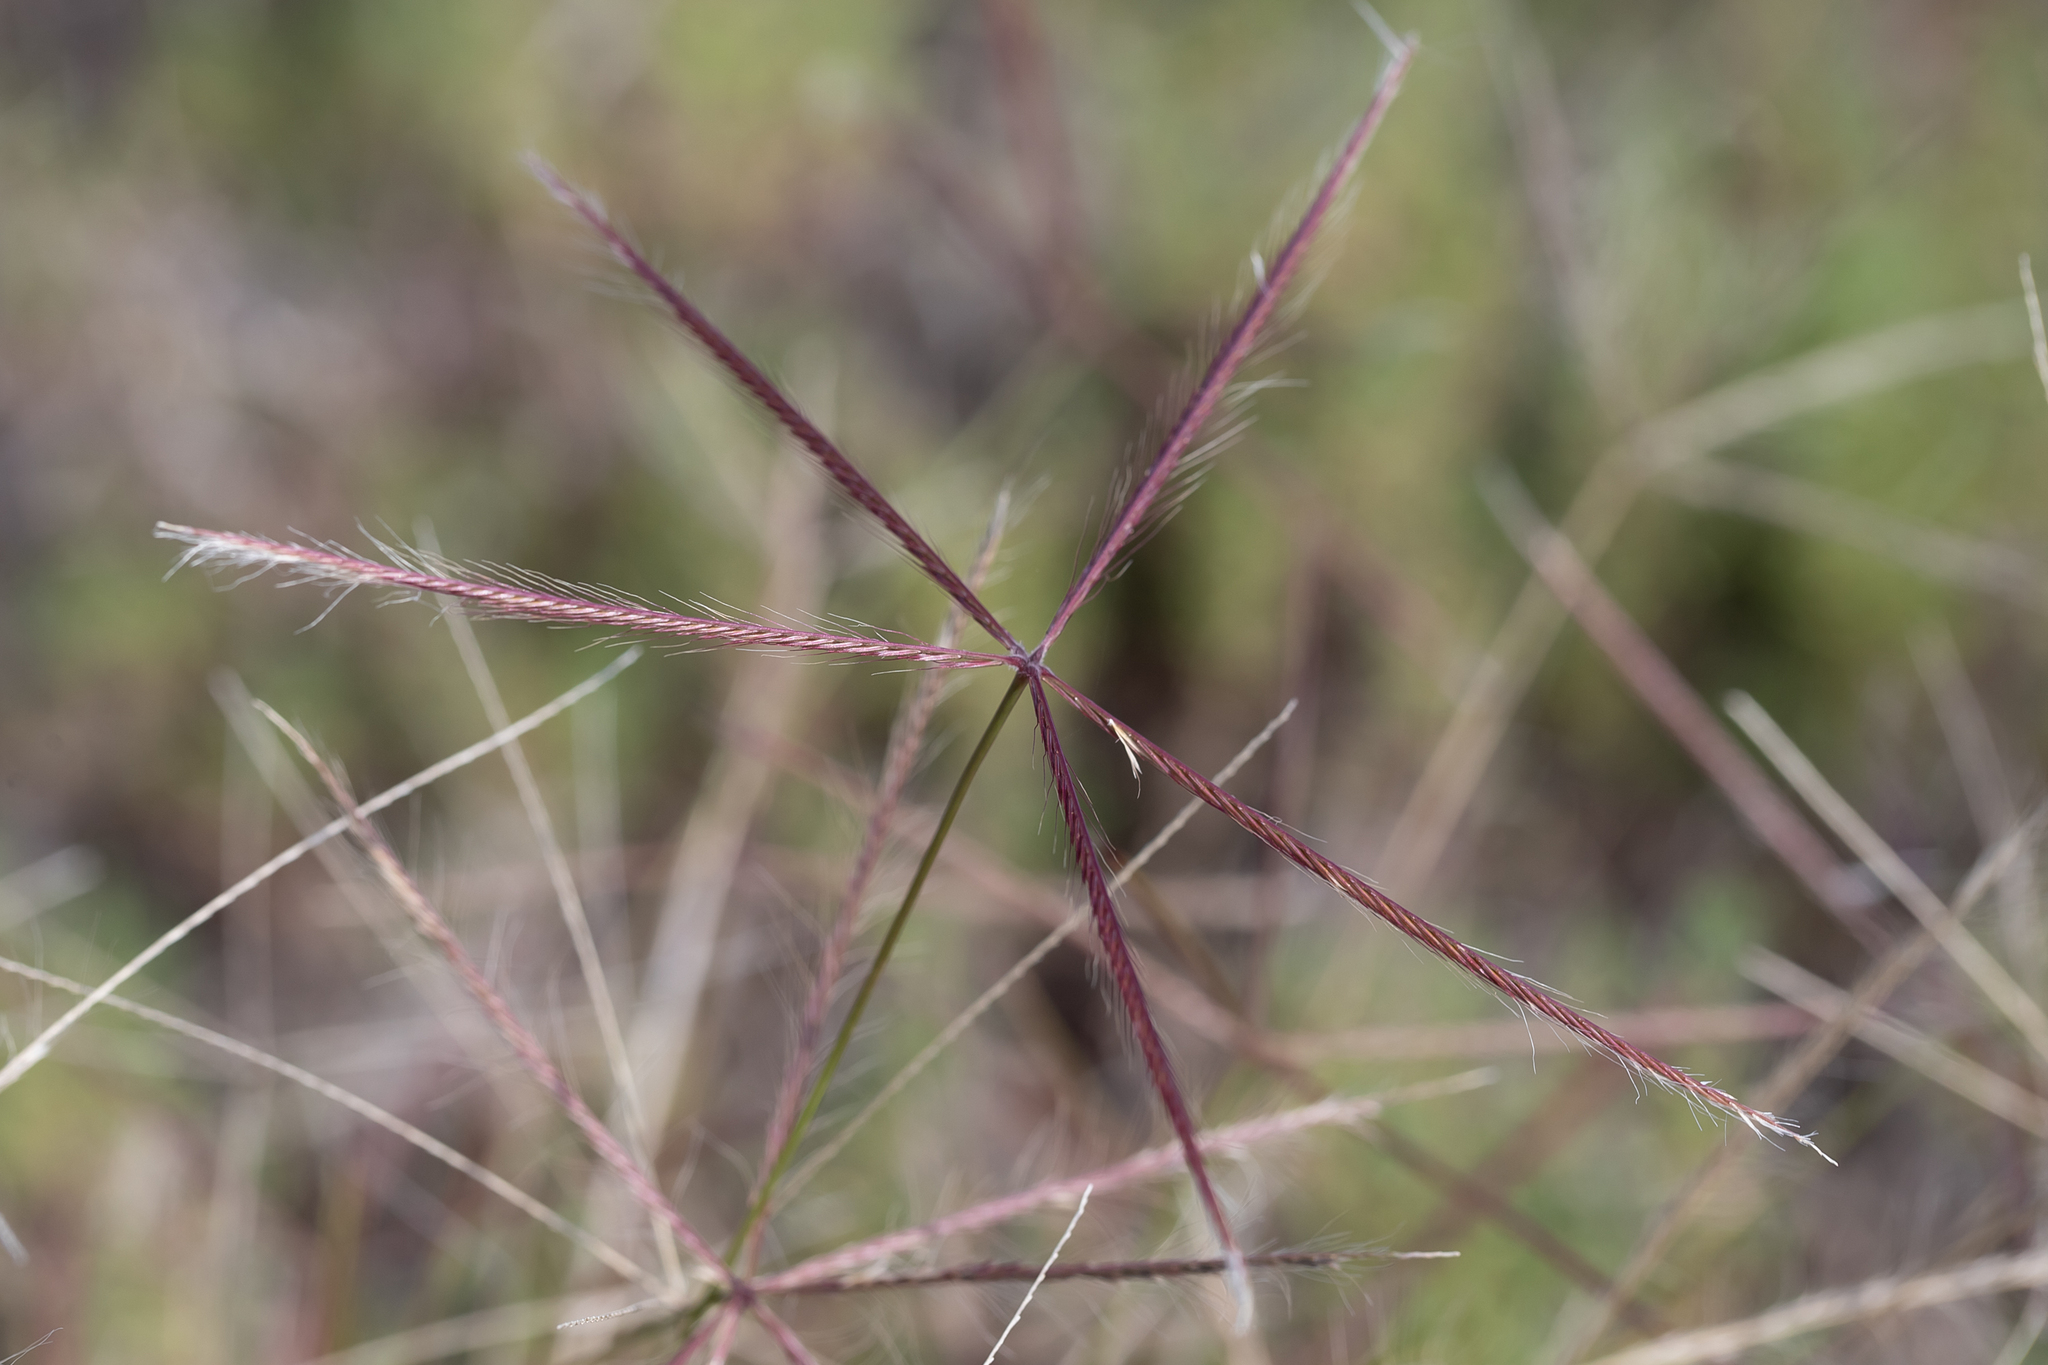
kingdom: Plantae
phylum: Tracheophyta
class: Liliopsida
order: Poales
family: Poaceae
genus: Chloris
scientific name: Chloris pectinata
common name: Comb windmill grass
